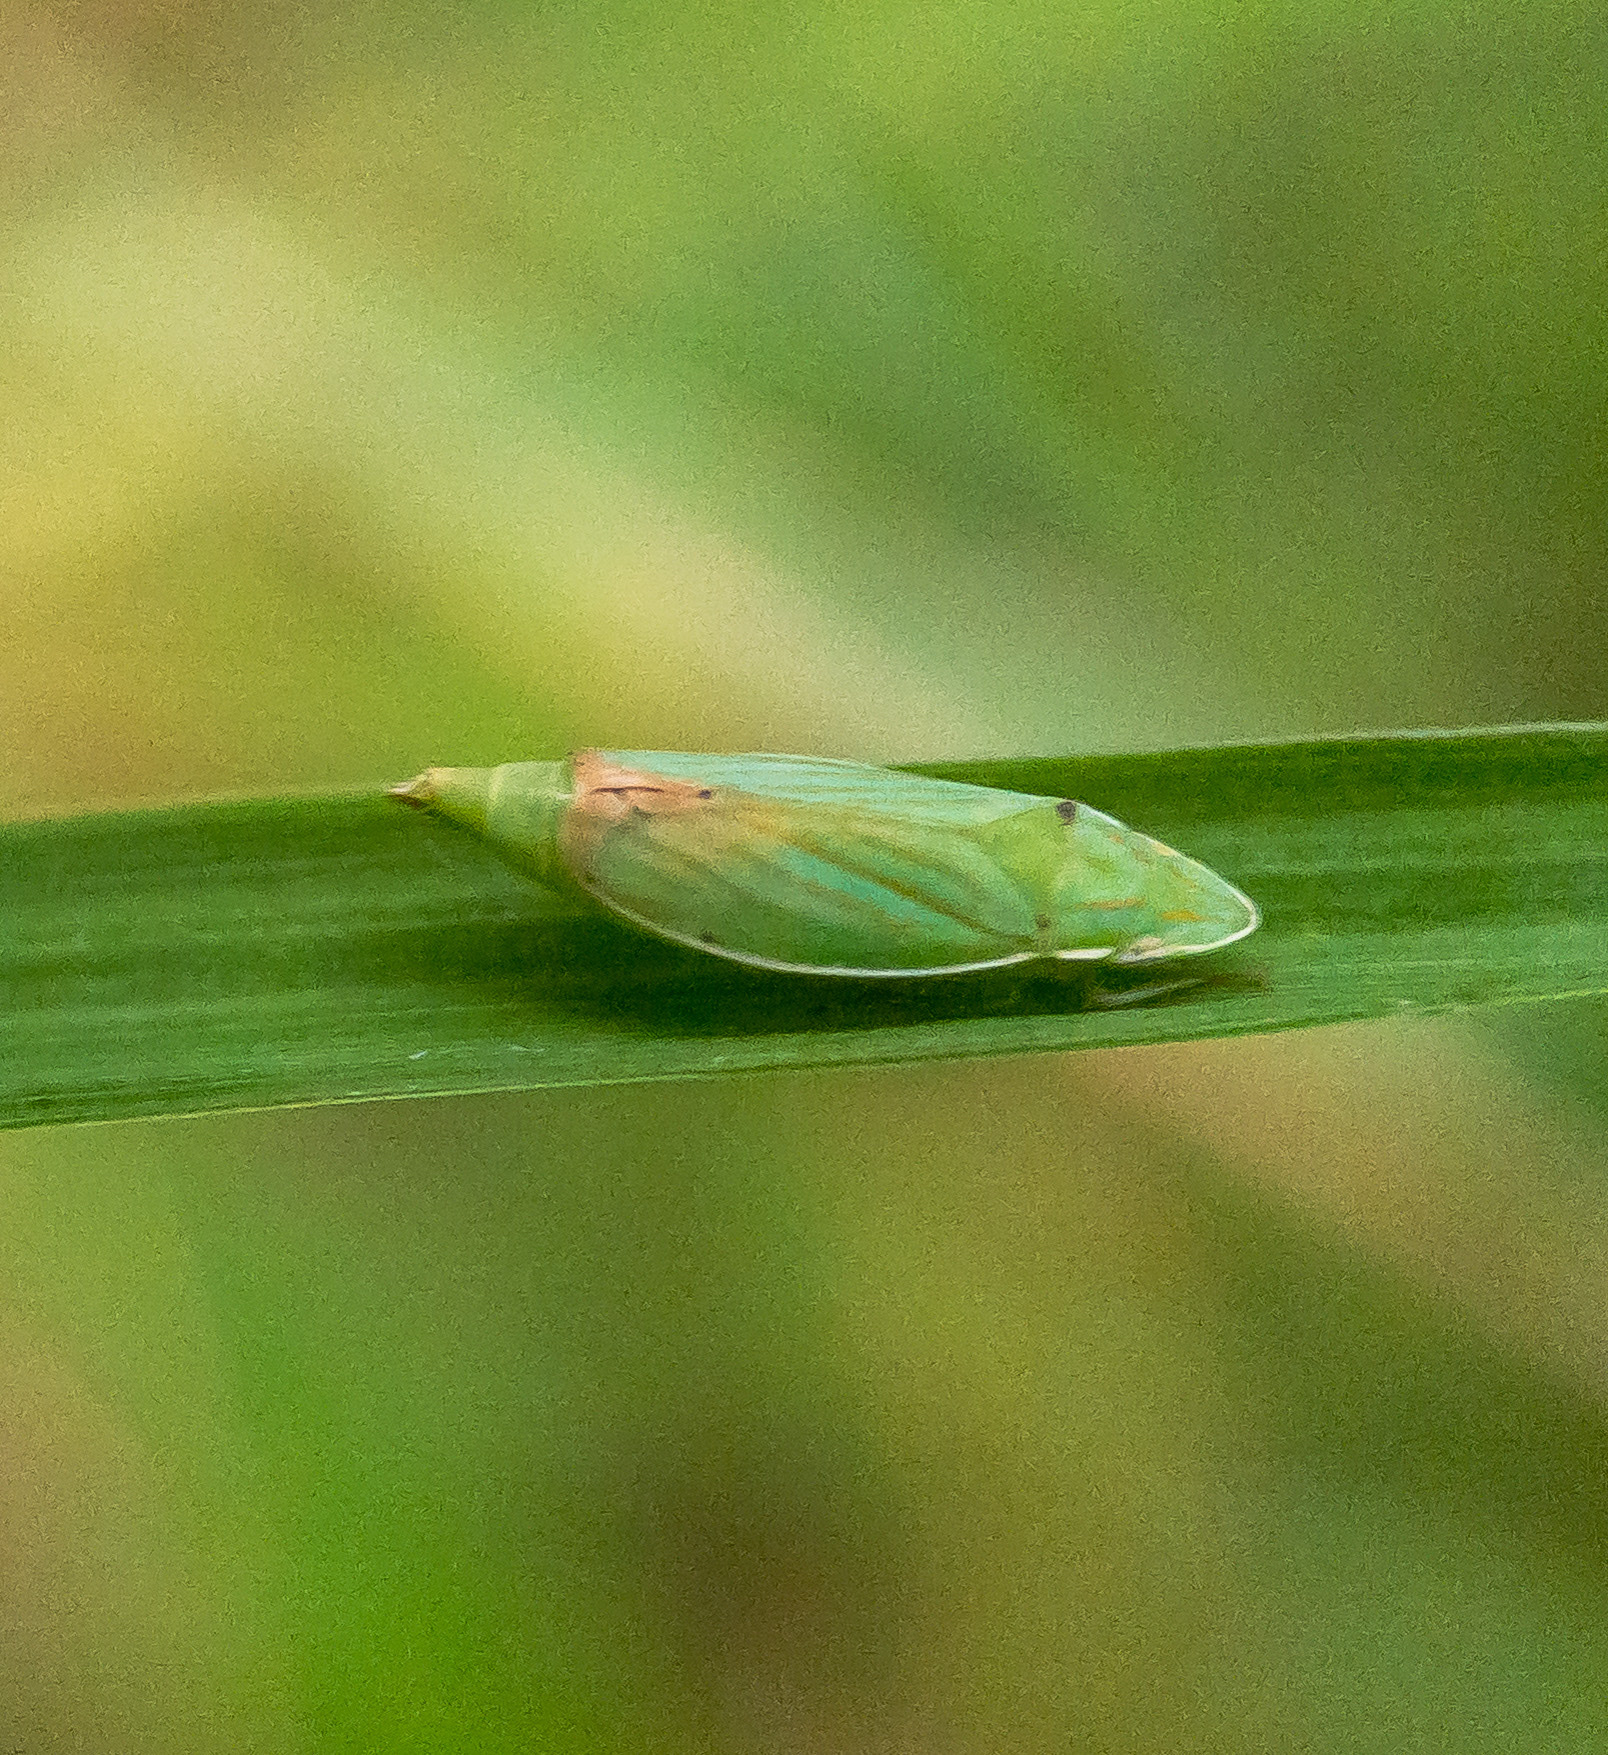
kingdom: Animalia
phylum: Arthropoda
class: Insecta
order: Hemiptera
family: Cicadellidae
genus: Spangbergiella
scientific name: Spangbergiella quadripunctata
